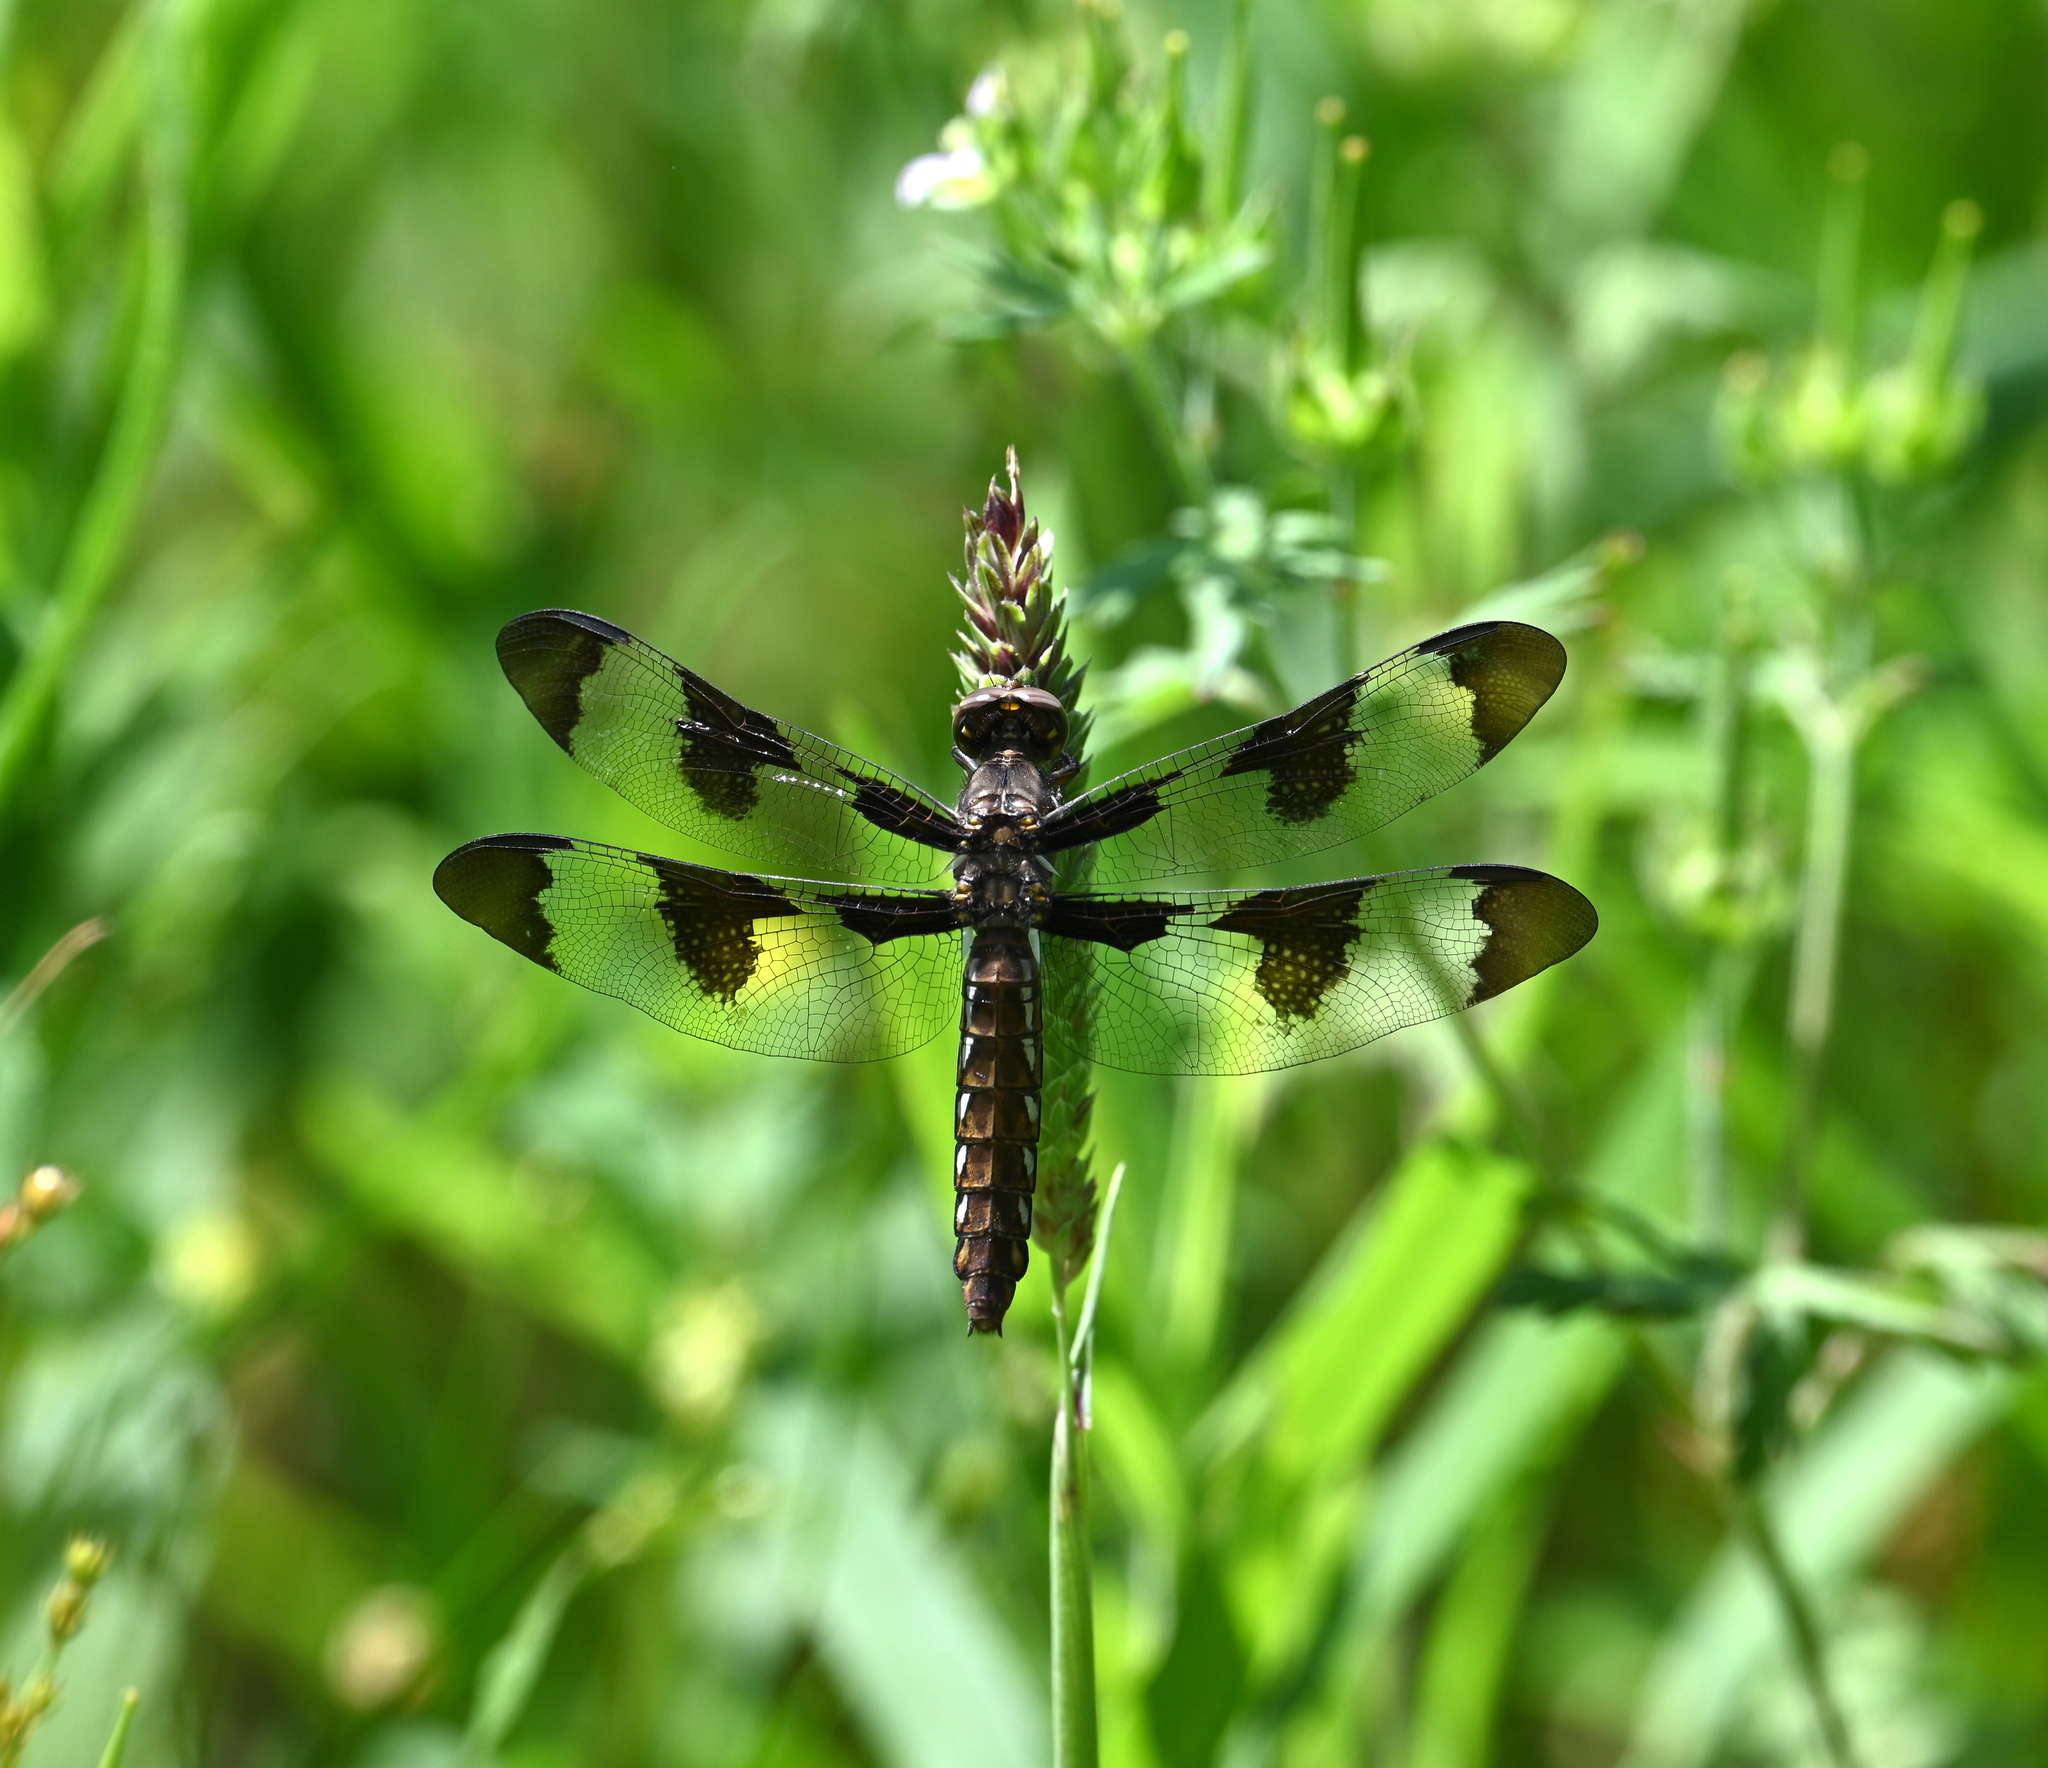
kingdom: Animalia
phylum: Arthropoda
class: Insecta
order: Odonata
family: Libellulidae
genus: Plathemis
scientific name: Plathemis lydia
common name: Common whitetail
